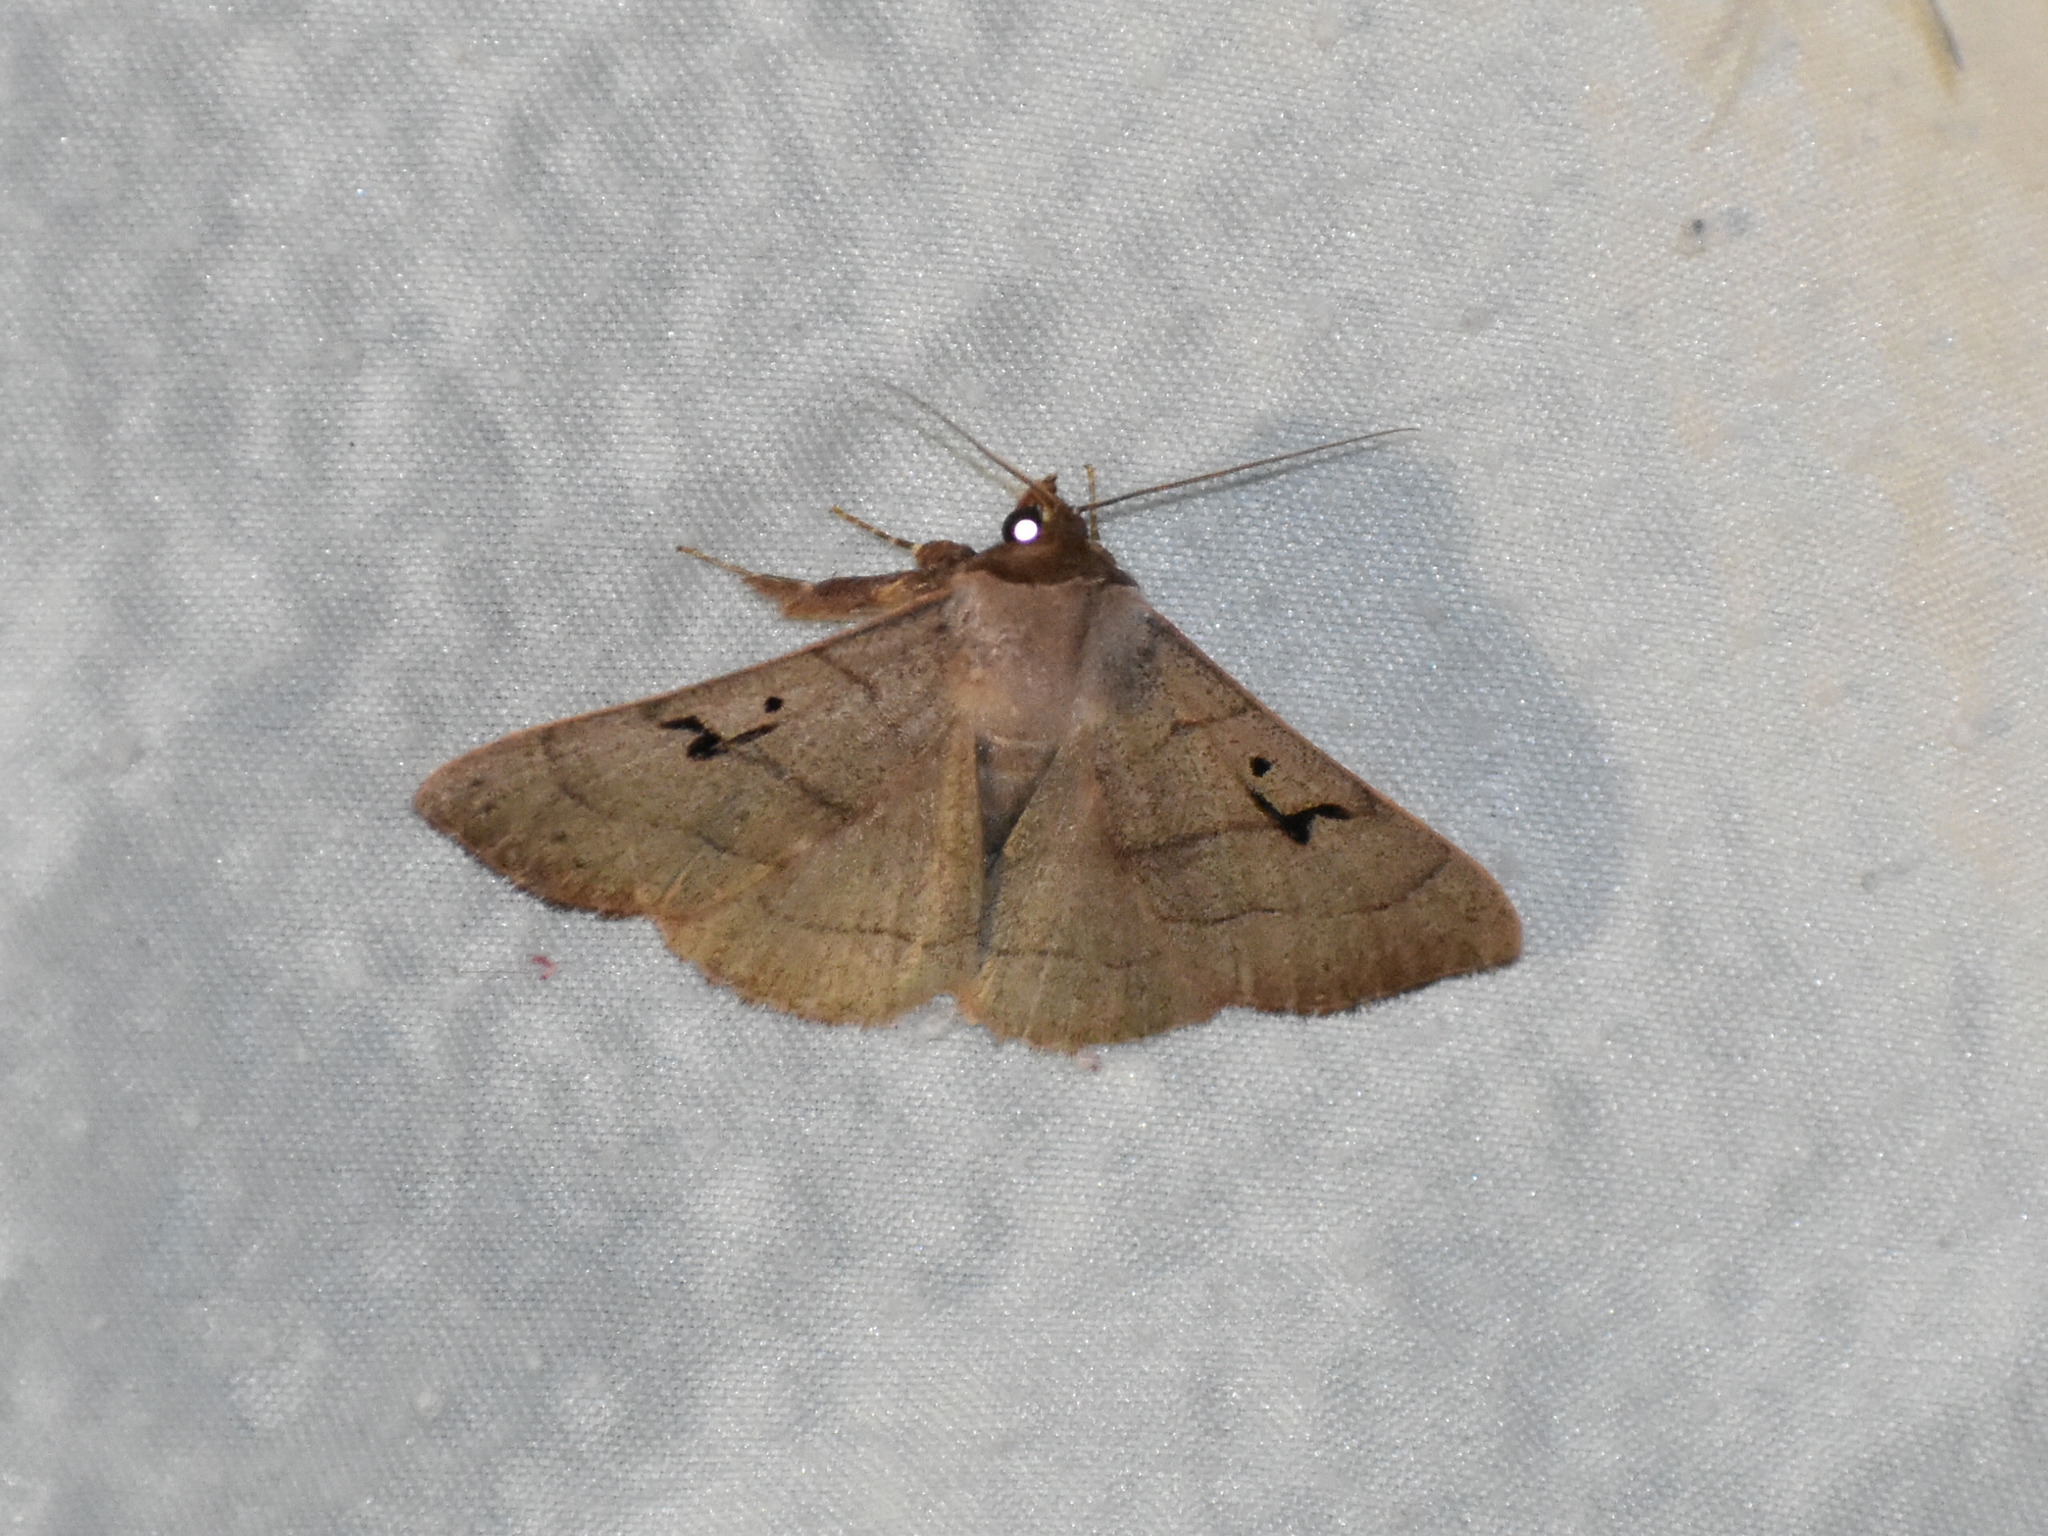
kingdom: Animalia
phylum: Arthropoda
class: Insecta
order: Lepidoptera
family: Erebidae
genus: Panopoda
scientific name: Panopoda carneicosta
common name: Brown panopoda moth
